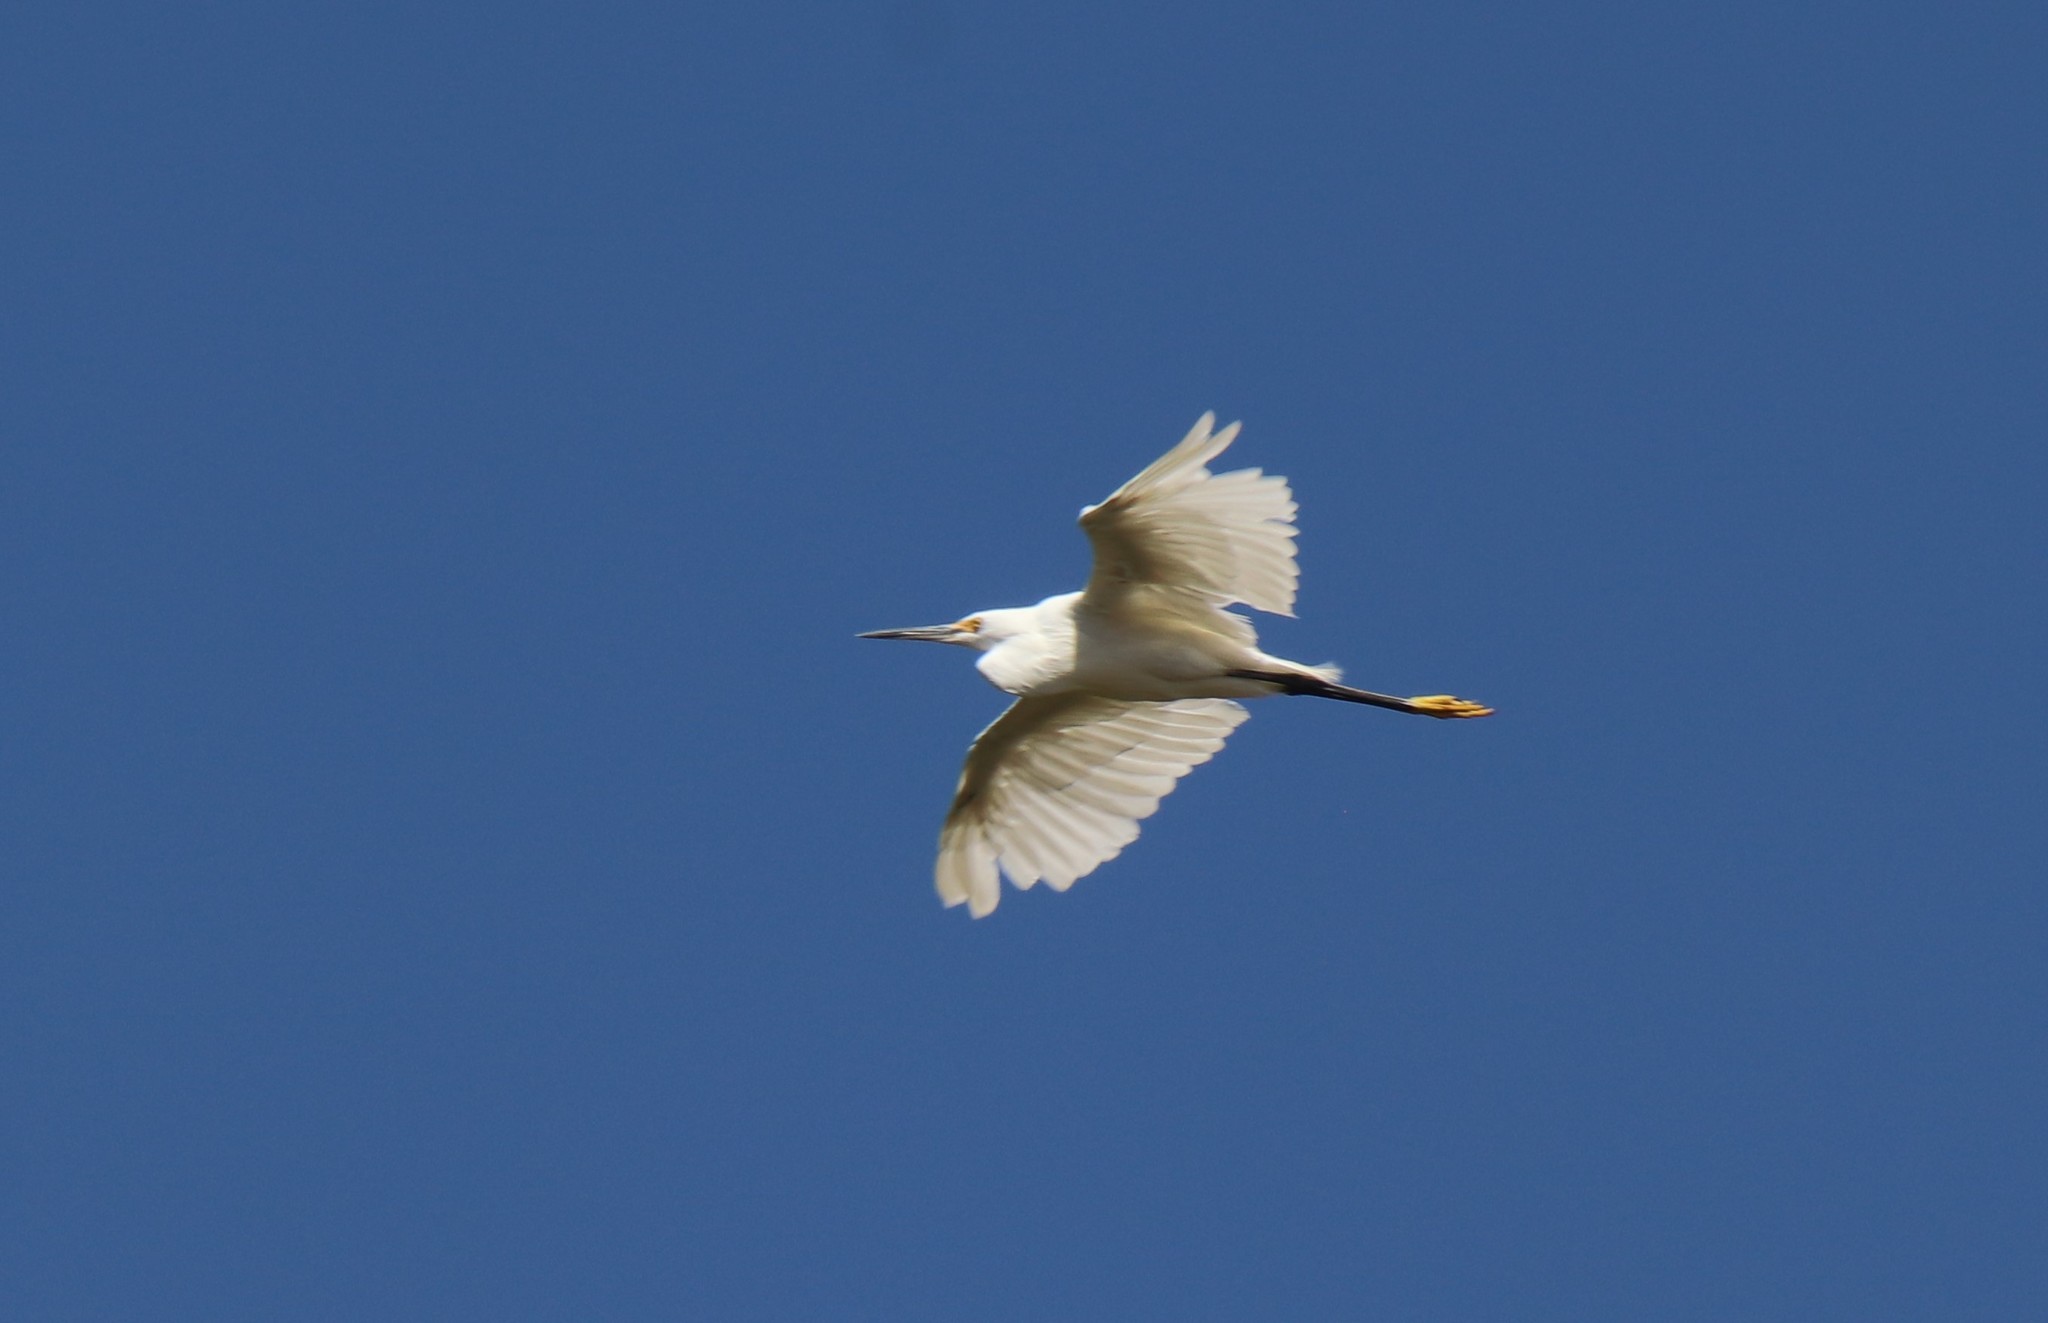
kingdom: Animalia
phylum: Chordata
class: Aves
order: Pelecaniformes
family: Ardeidae
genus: Egretta
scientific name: Egretta thula
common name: Snowy egret
